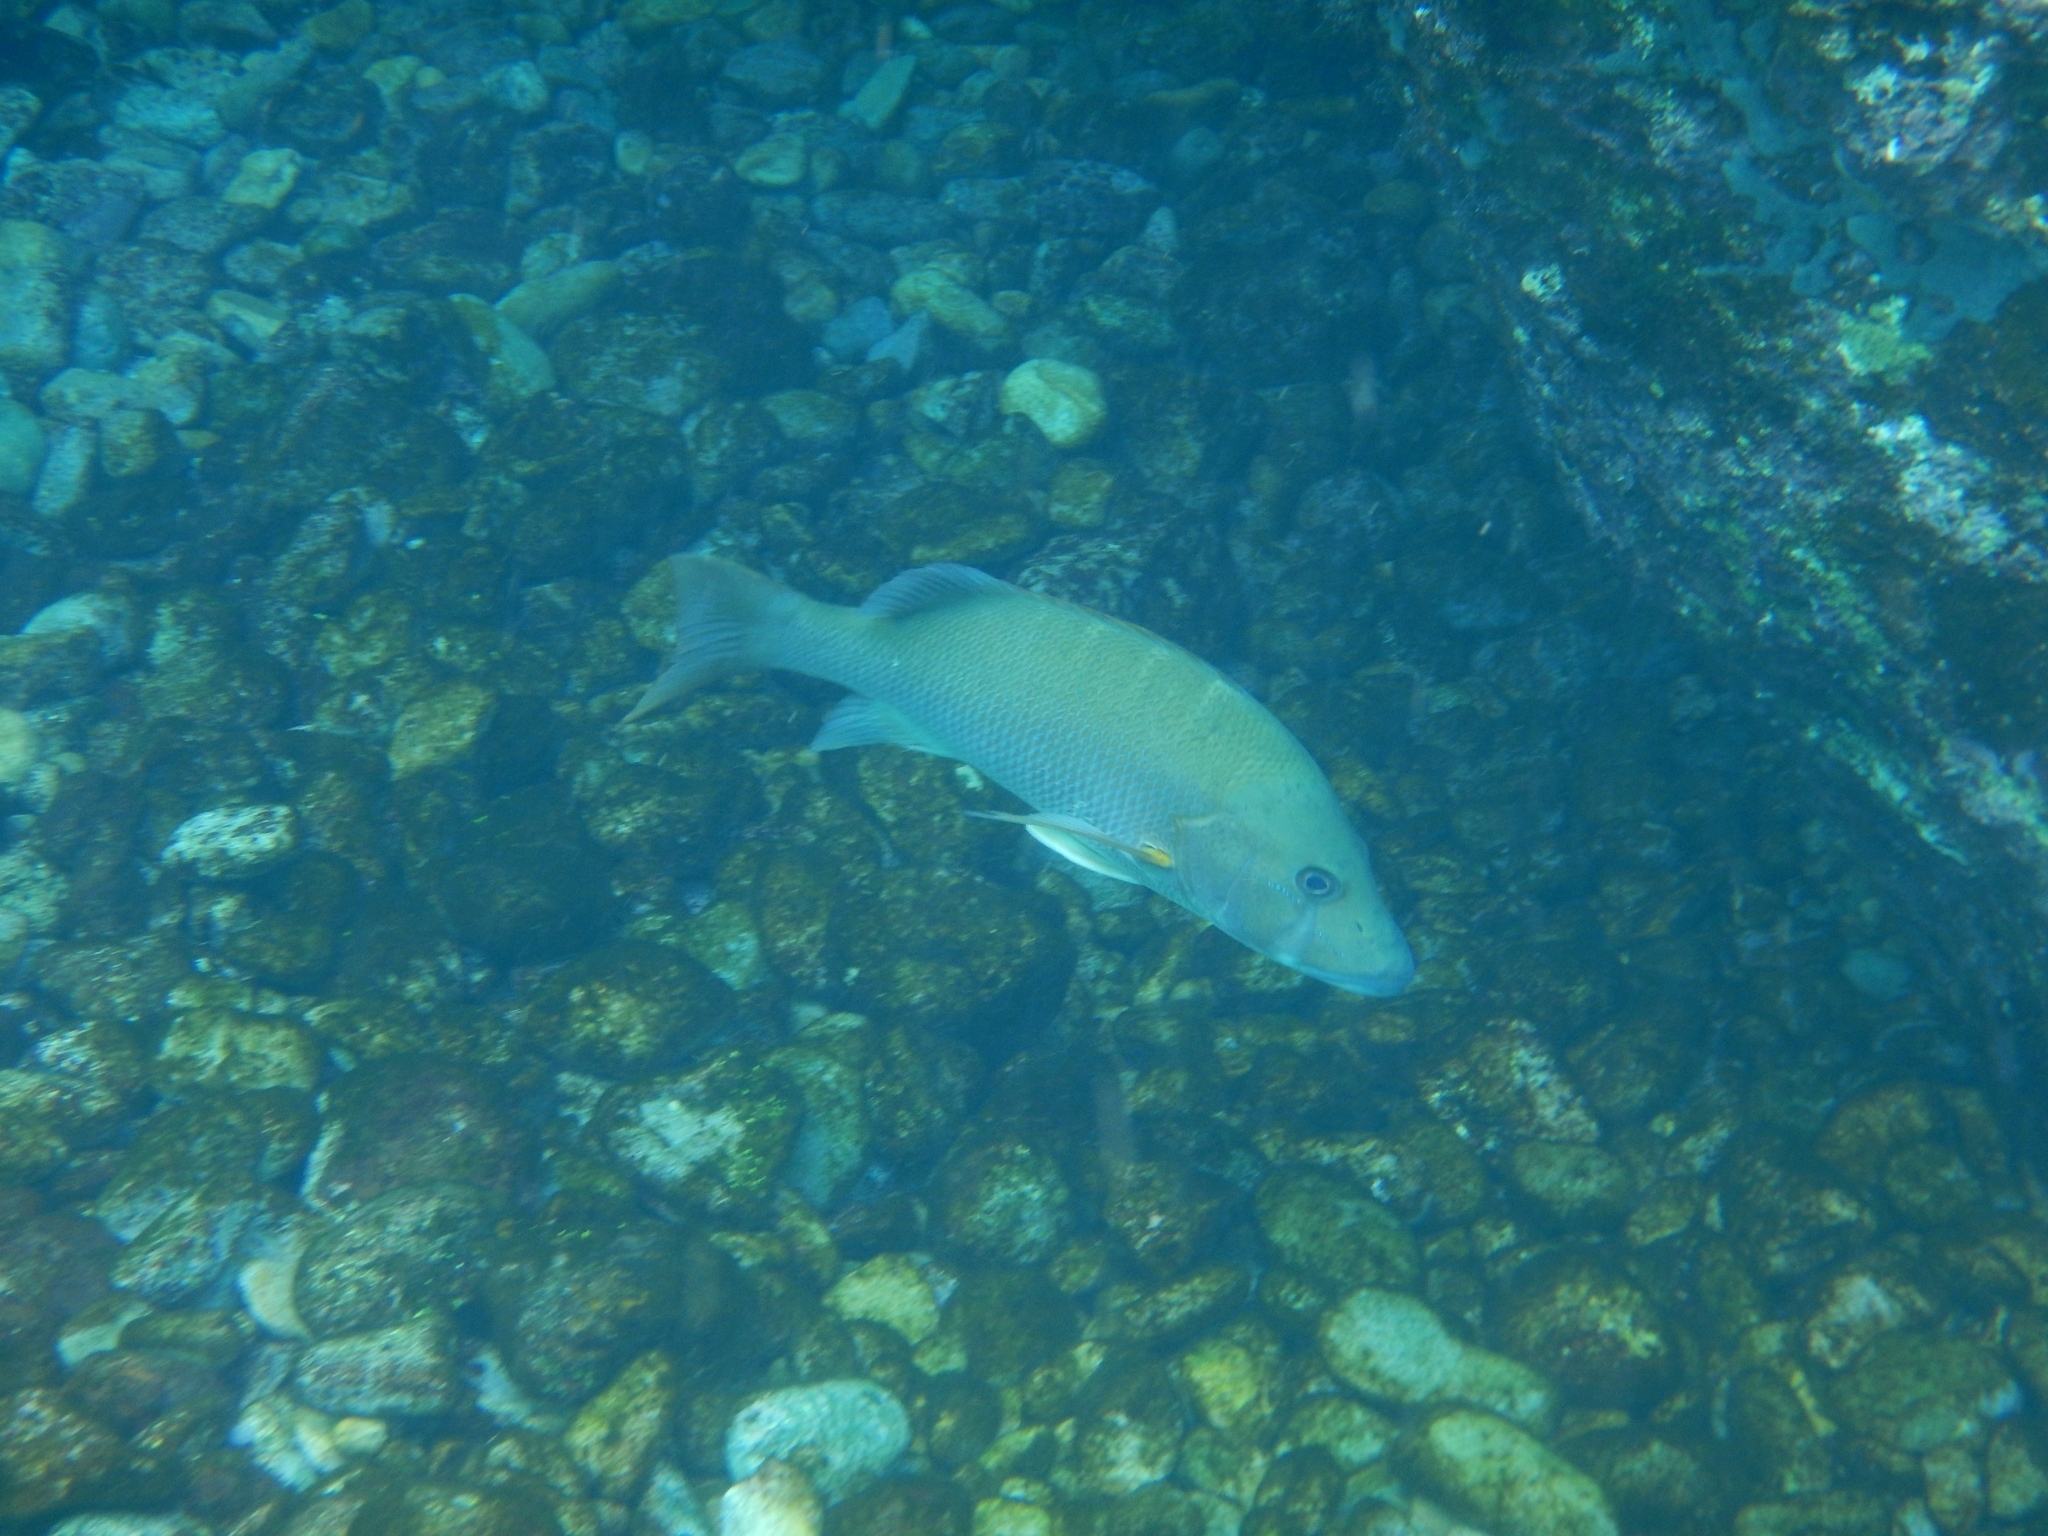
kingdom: Animalia
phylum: Chordata
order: Perciformes
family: Lutjanidae
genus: Lutjanus
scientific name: Lutjanus jocu
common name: Dog snapper
